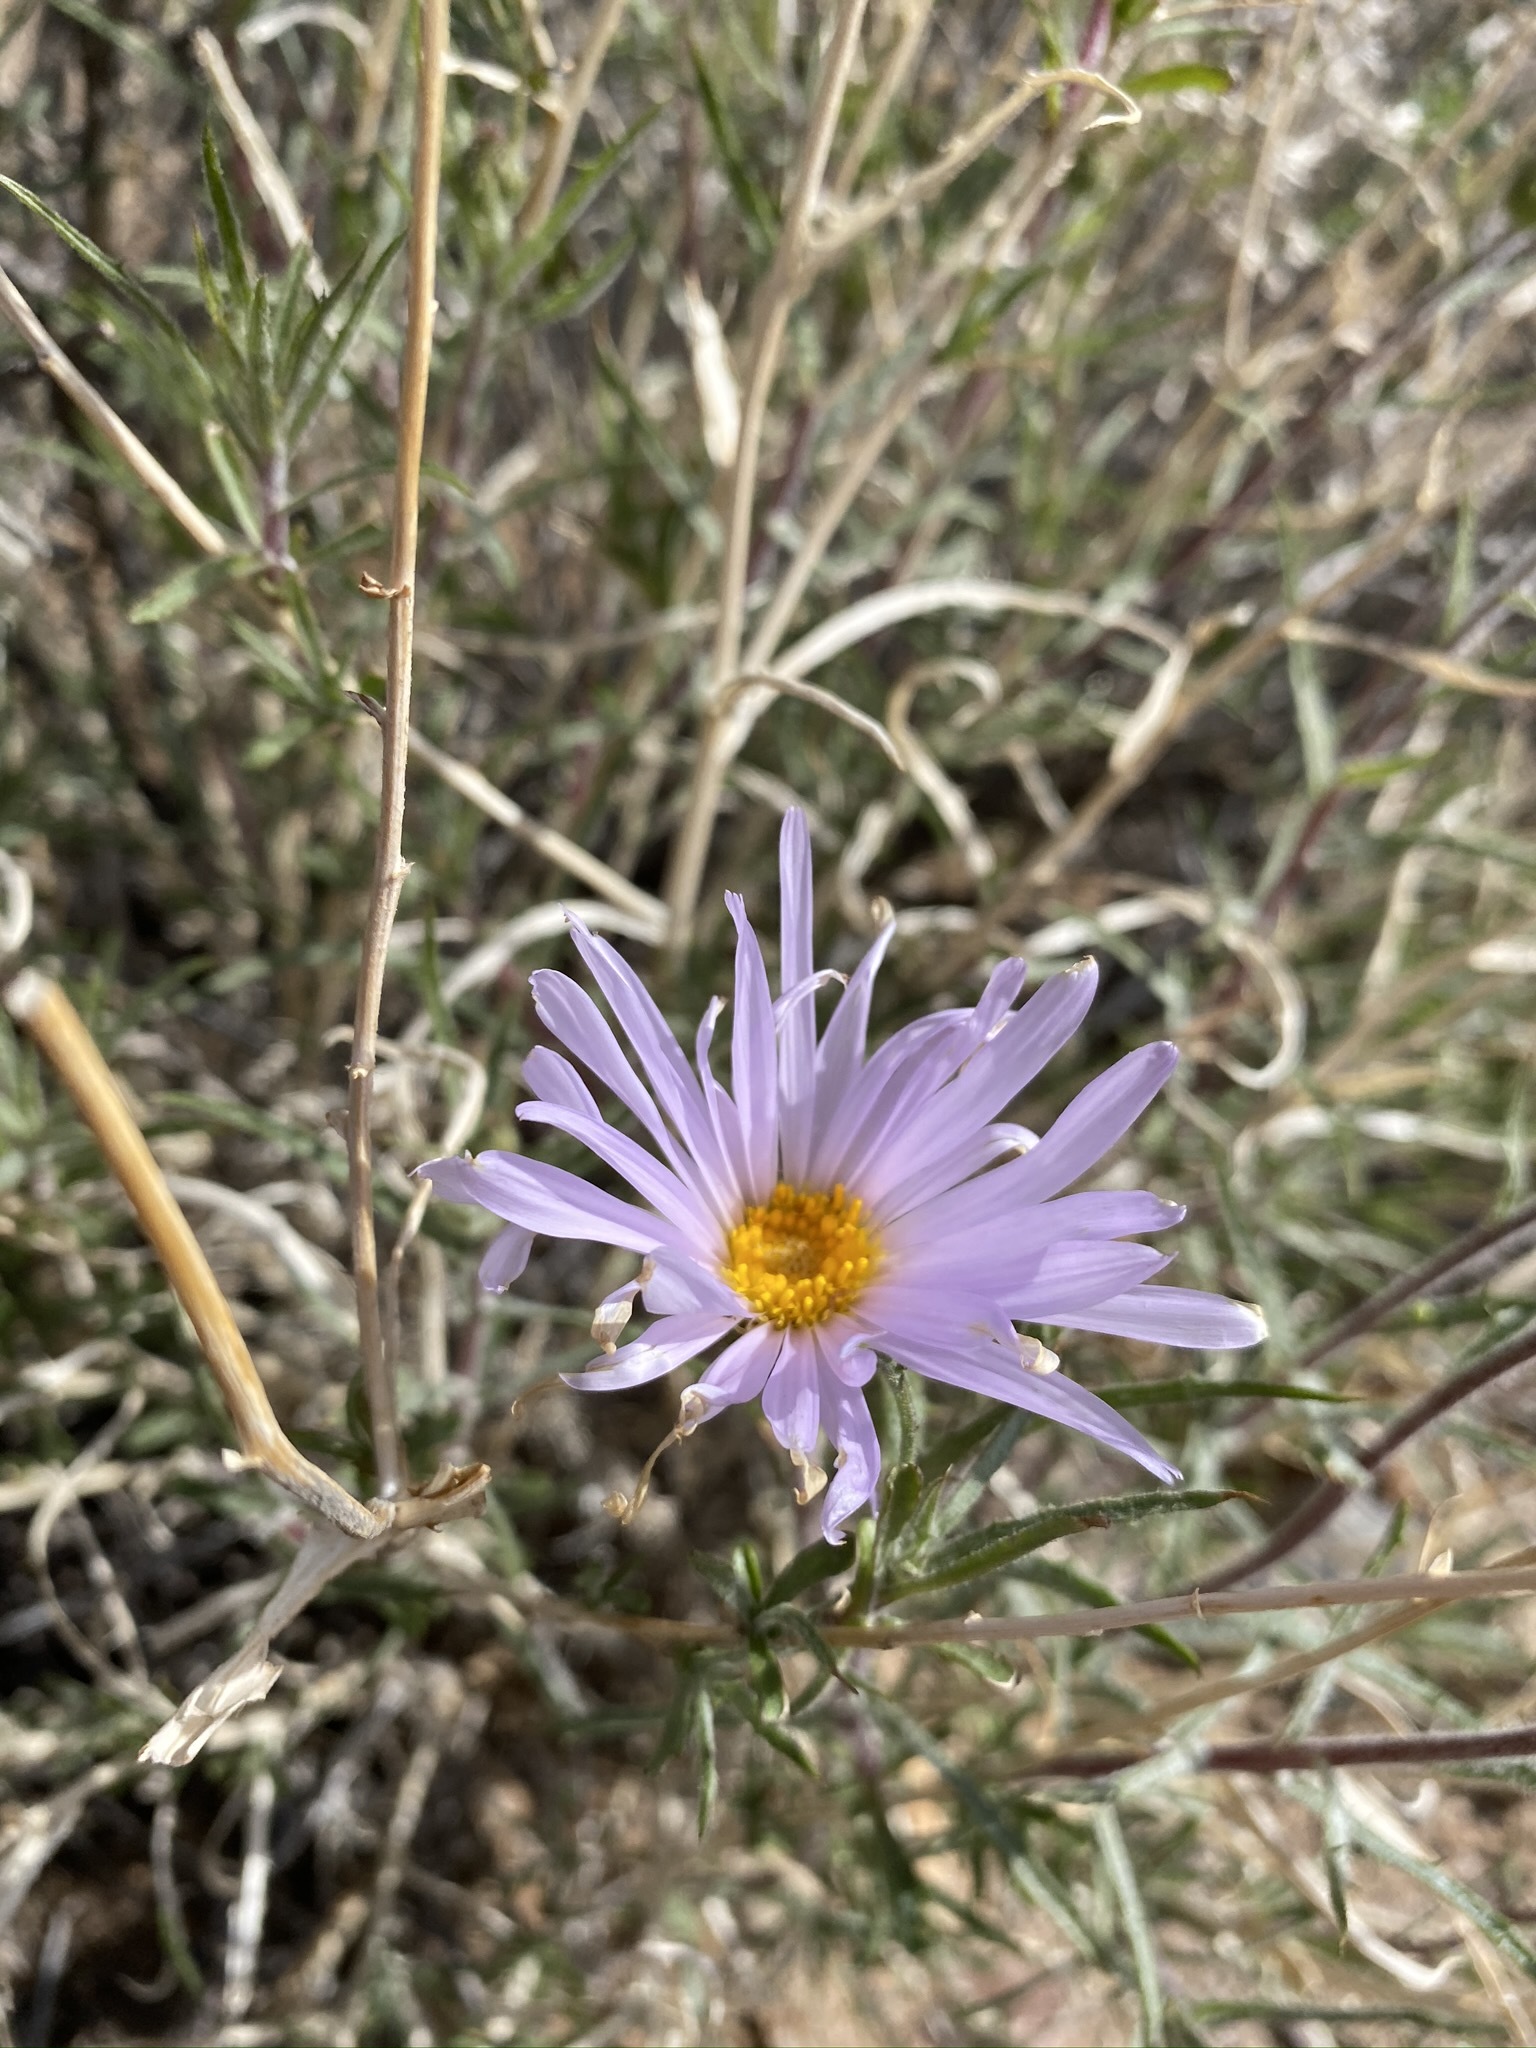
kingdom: Plantae
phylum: Tracheophyta
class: Magnoliopsida
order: Asterales
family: Asteraceae
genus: Xylorhiza
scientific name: Xylorhiza tortifolia
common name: Hurt-leaf woody-aster
